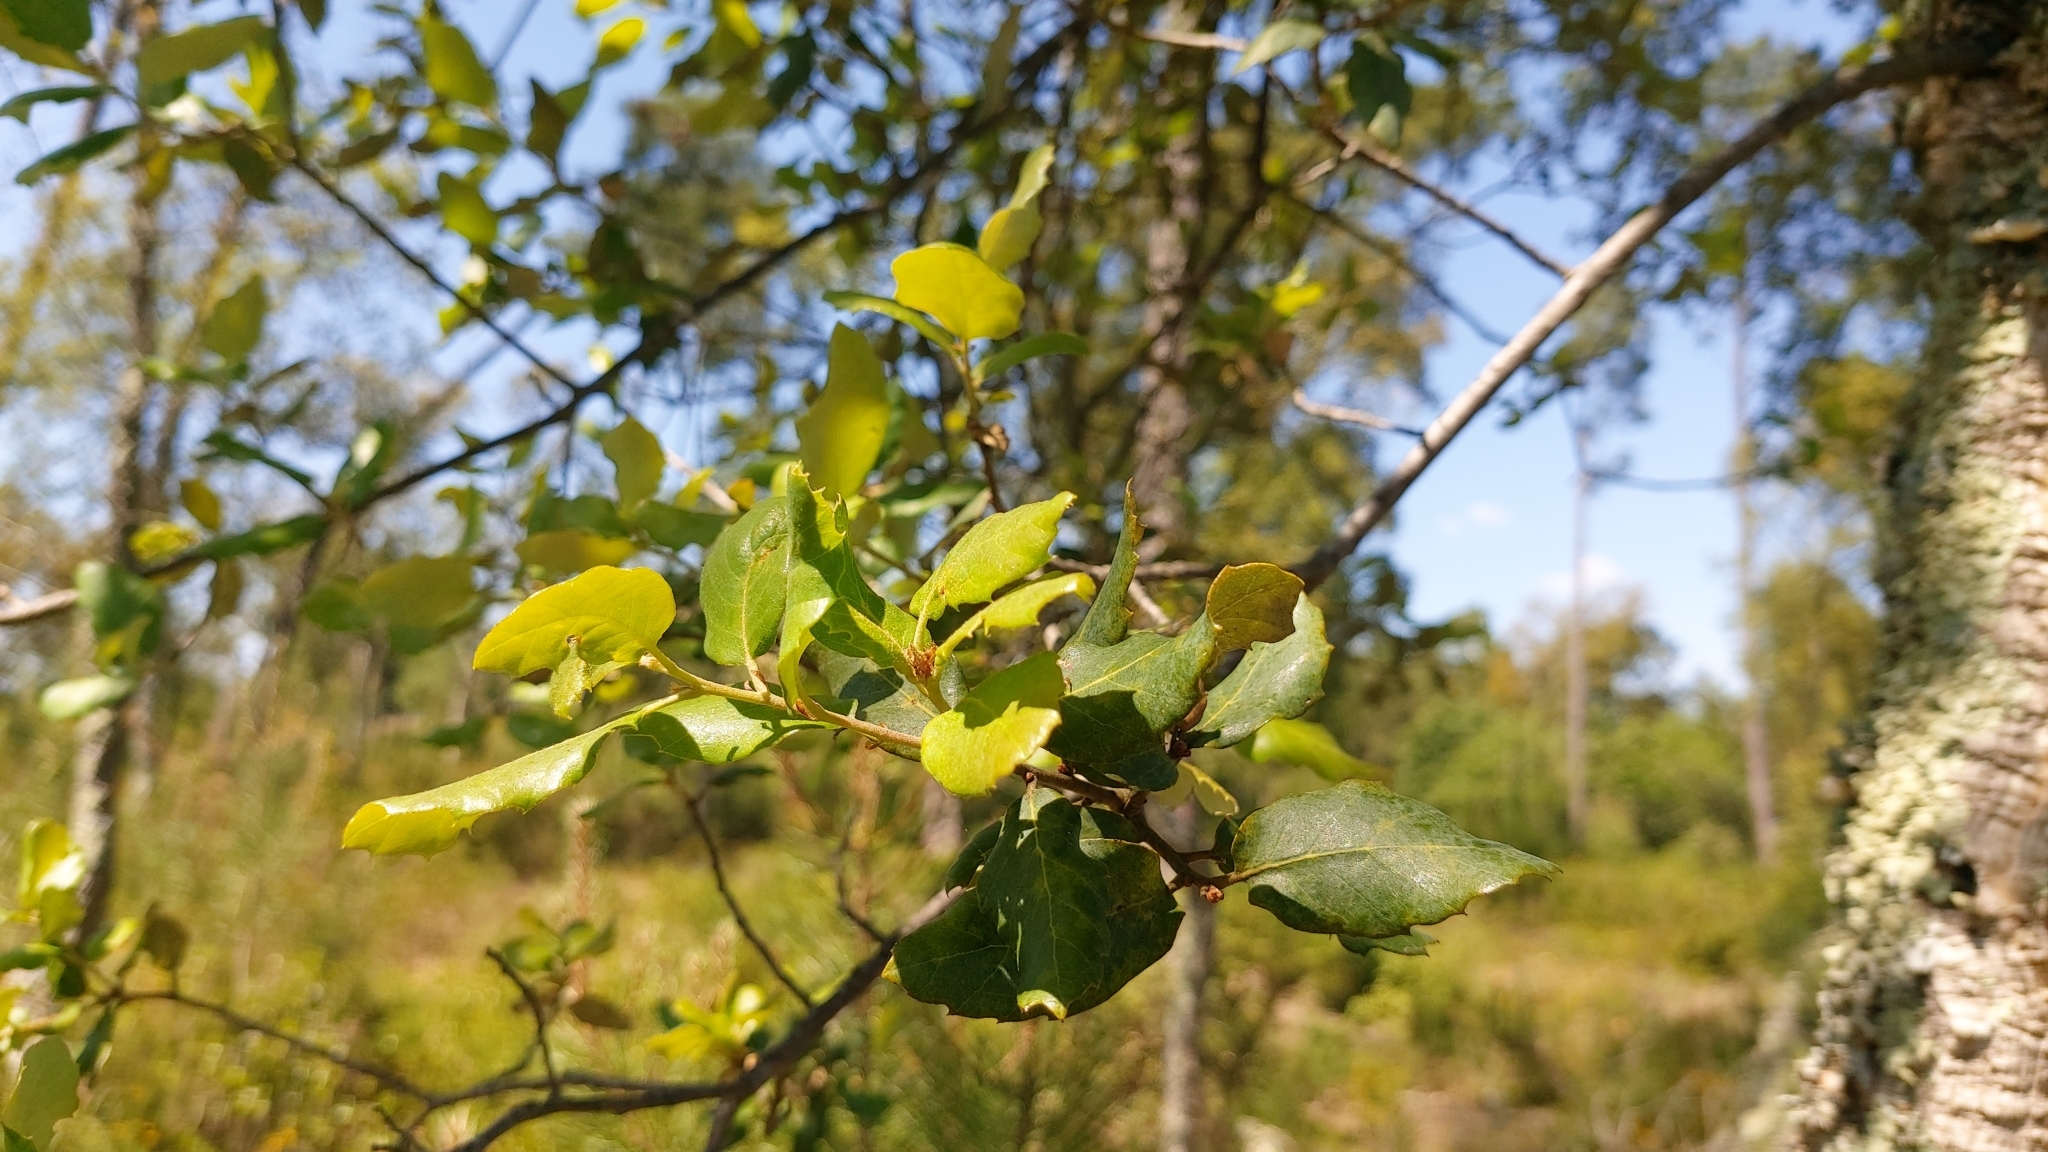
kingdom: Plantae
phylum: Tracheophyta
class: Magnoliopsida
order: Fagales
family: Fagaceae
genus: Quercus
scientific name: Quercus suber
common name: Cork oak
